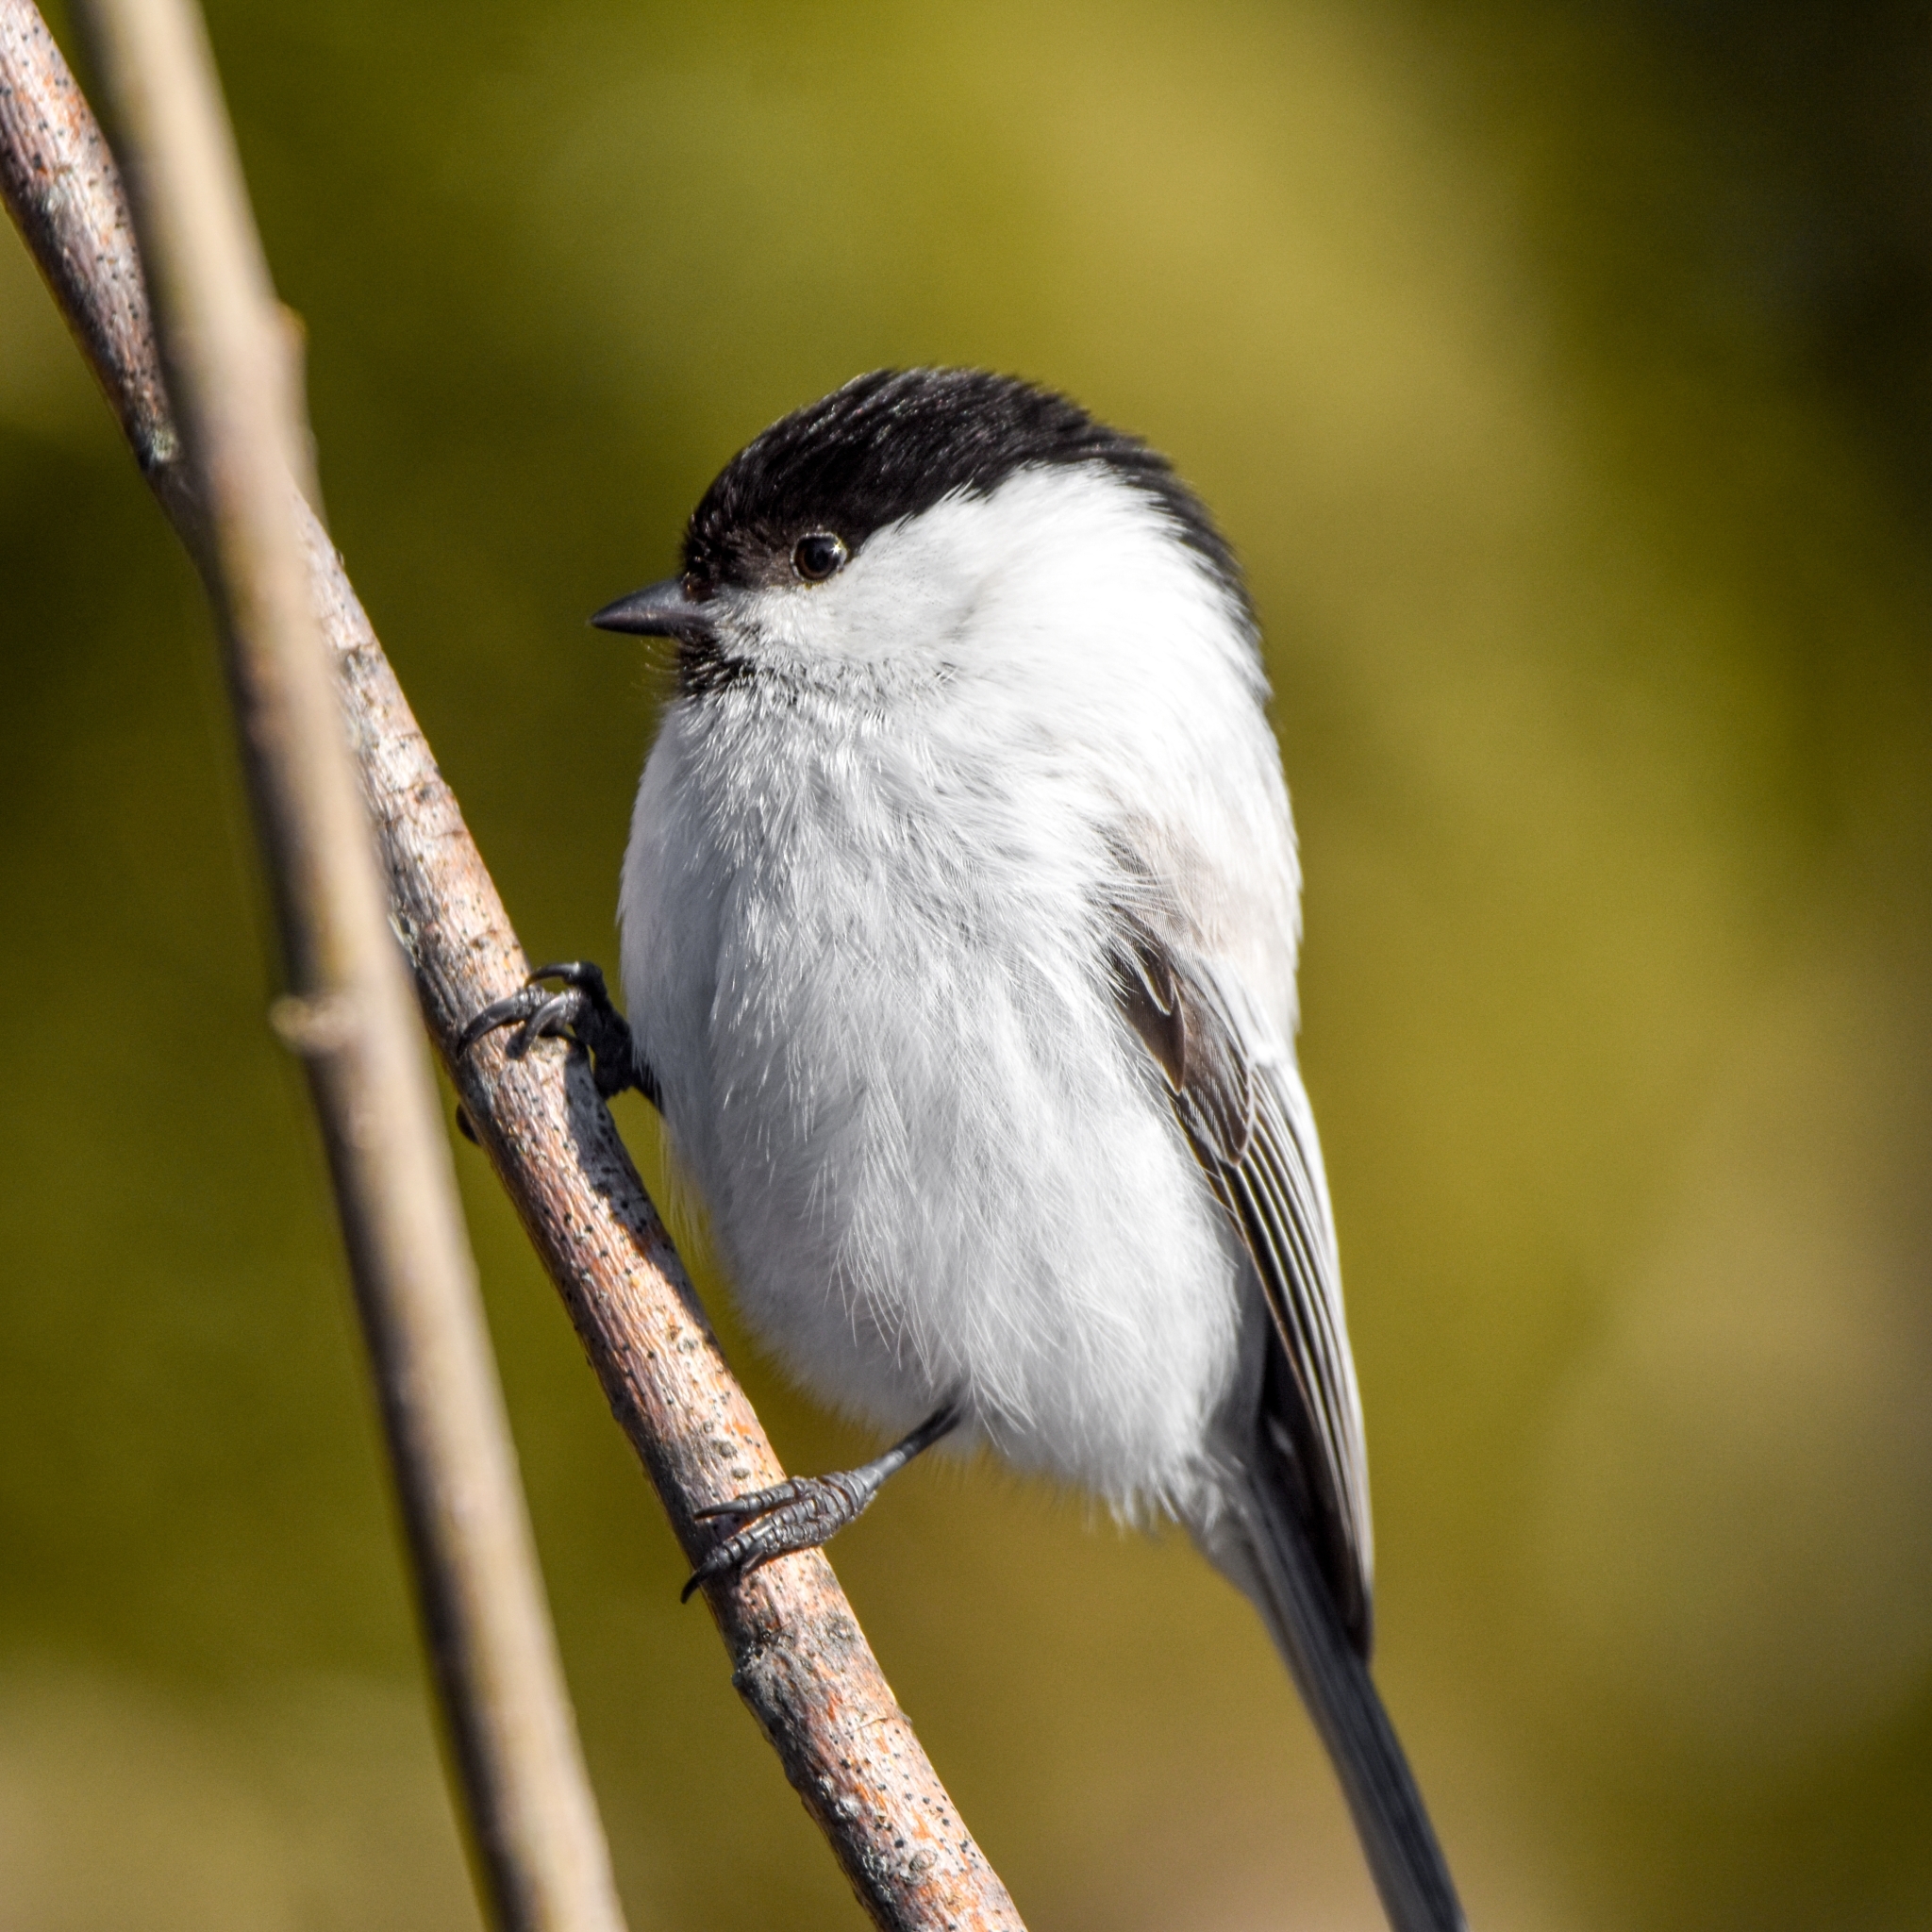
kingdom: Animalia
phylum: Chordata
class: Aves
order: Passeriformes
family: Paridae
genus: Poecile
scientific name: Poecile montanus
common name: Willow tit
